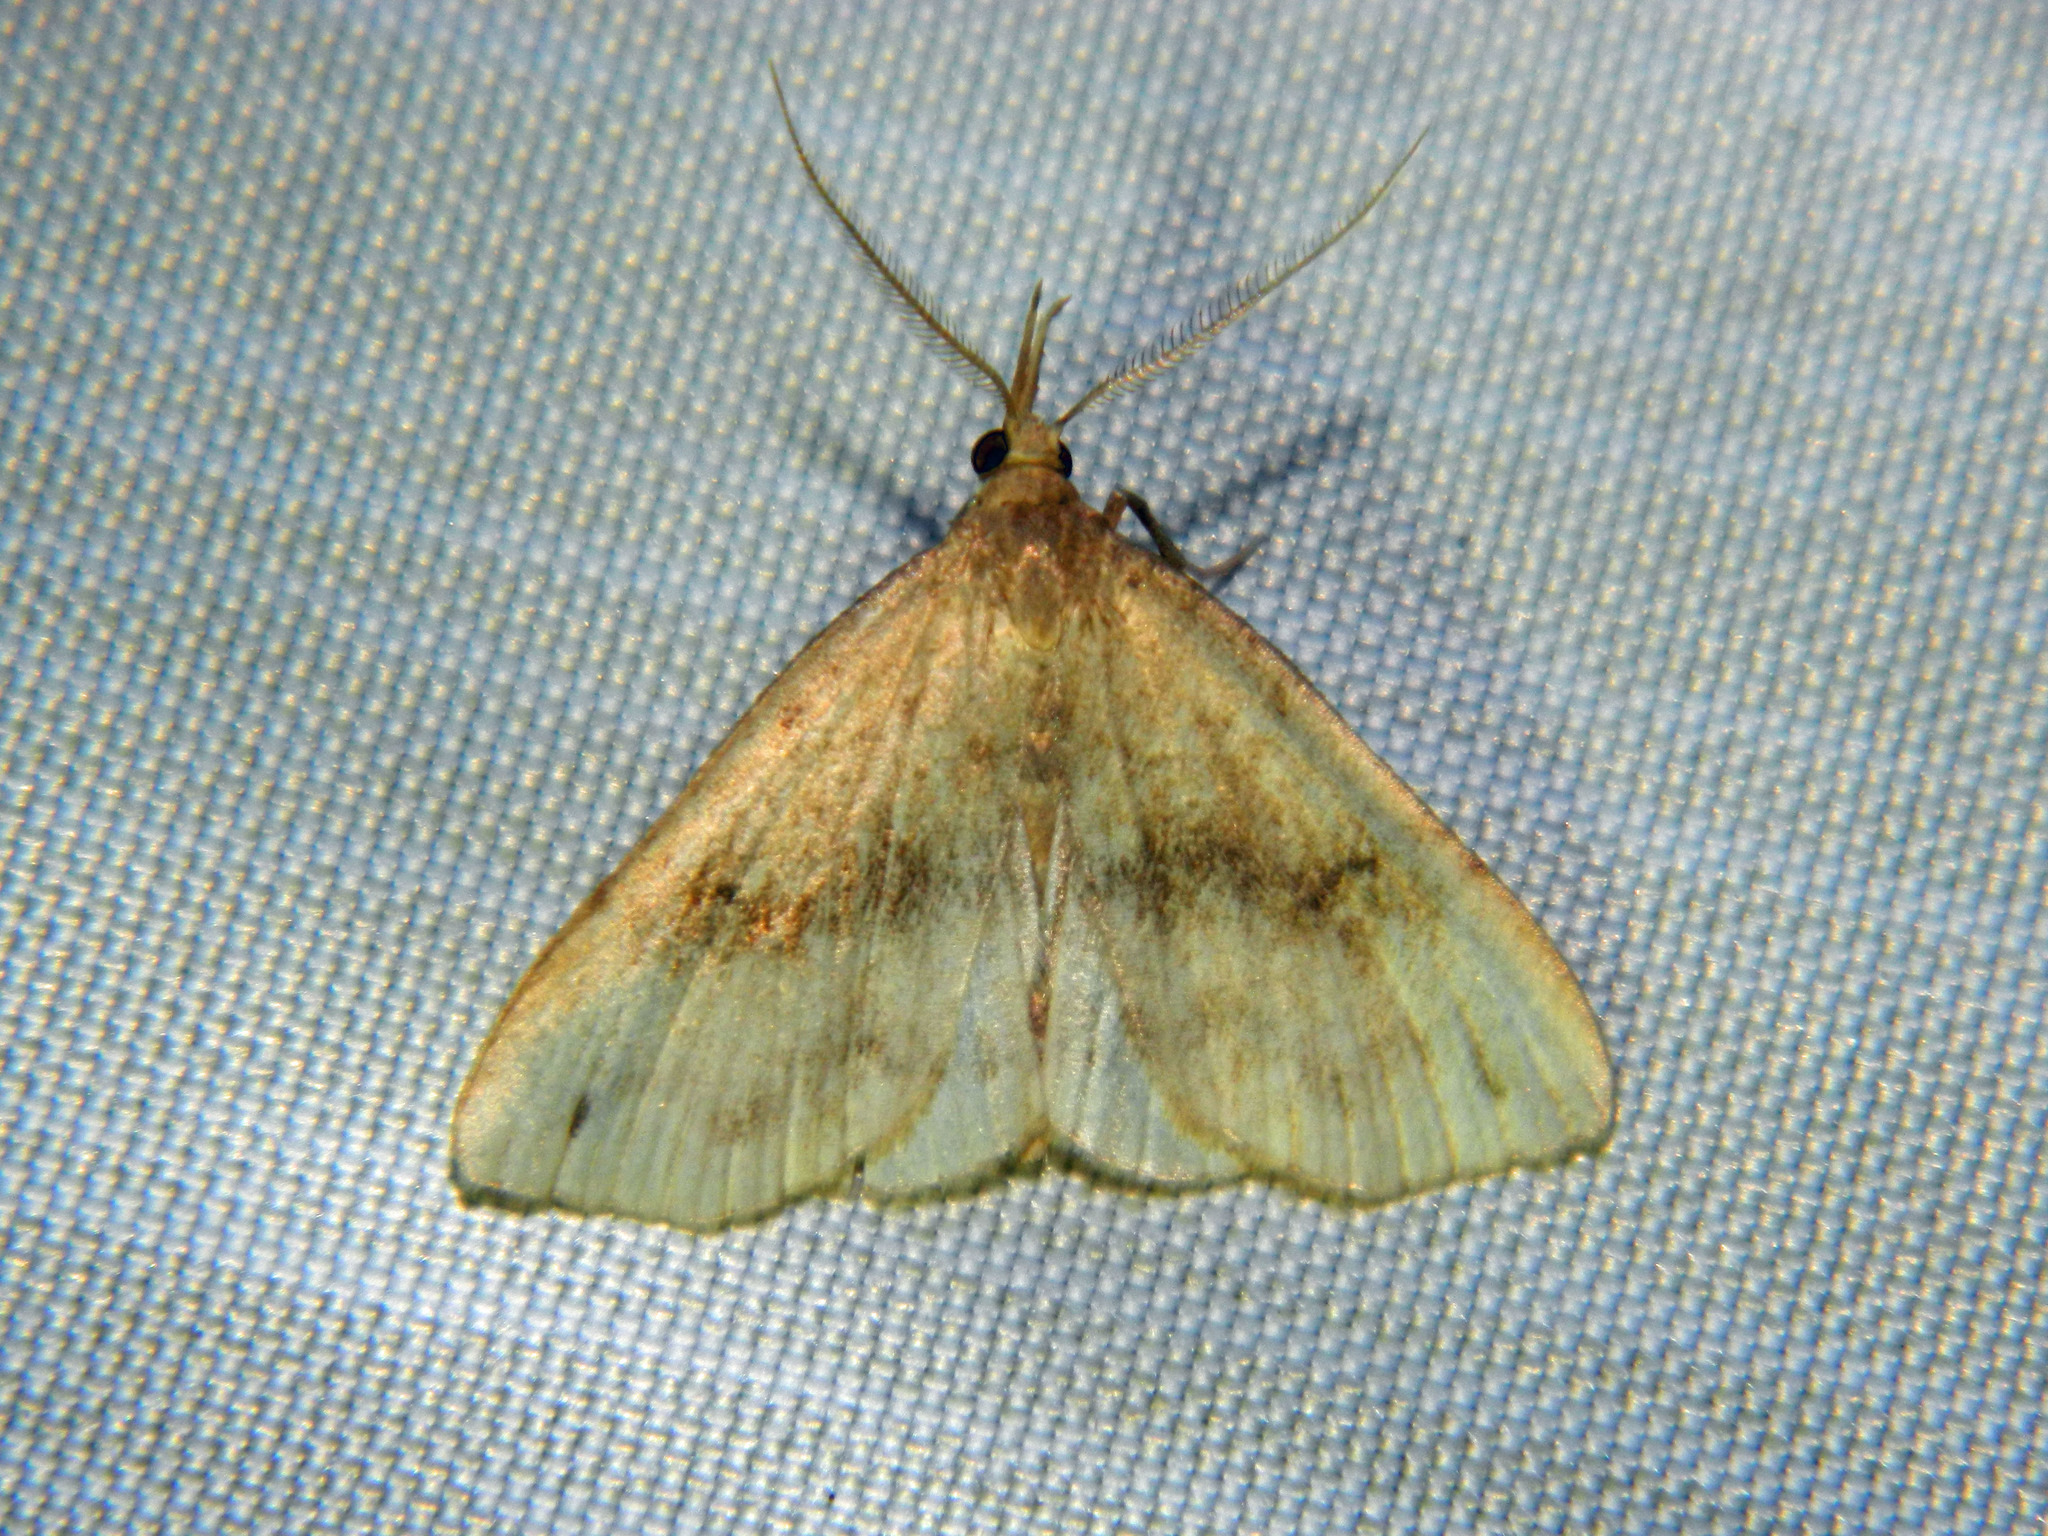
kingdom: Animalia
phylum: Arthropoda
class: Insecta
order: Lepidoptera
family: Erebidae
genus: Phalaenostola
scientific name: Phalaenostola eumelusalis
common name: Dark phalaenostola moth
